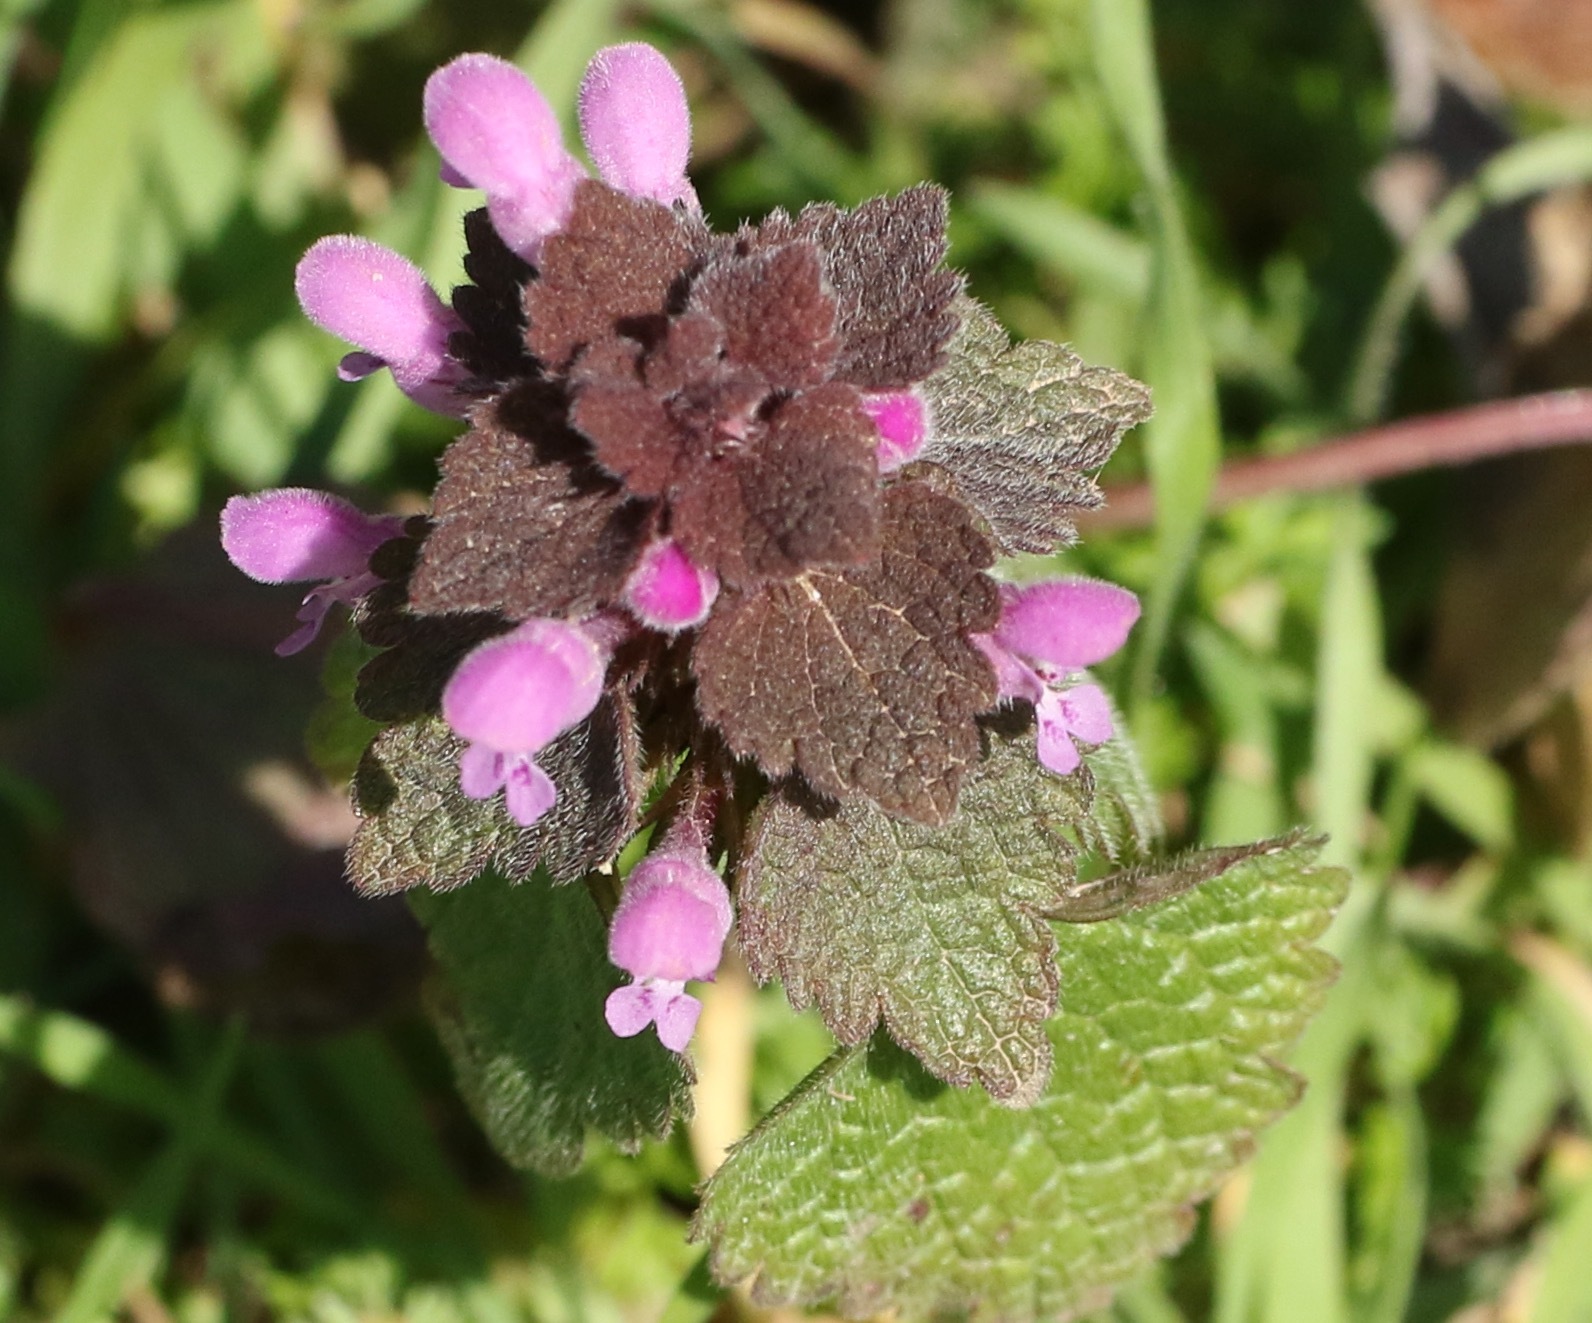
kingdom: Plantae
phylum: Tracheophyta
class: Magnoliopsida
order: Lamiales
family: Lamiaceae
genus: Lamium
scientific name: Lamium purpureum
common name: Red dead-nettle
